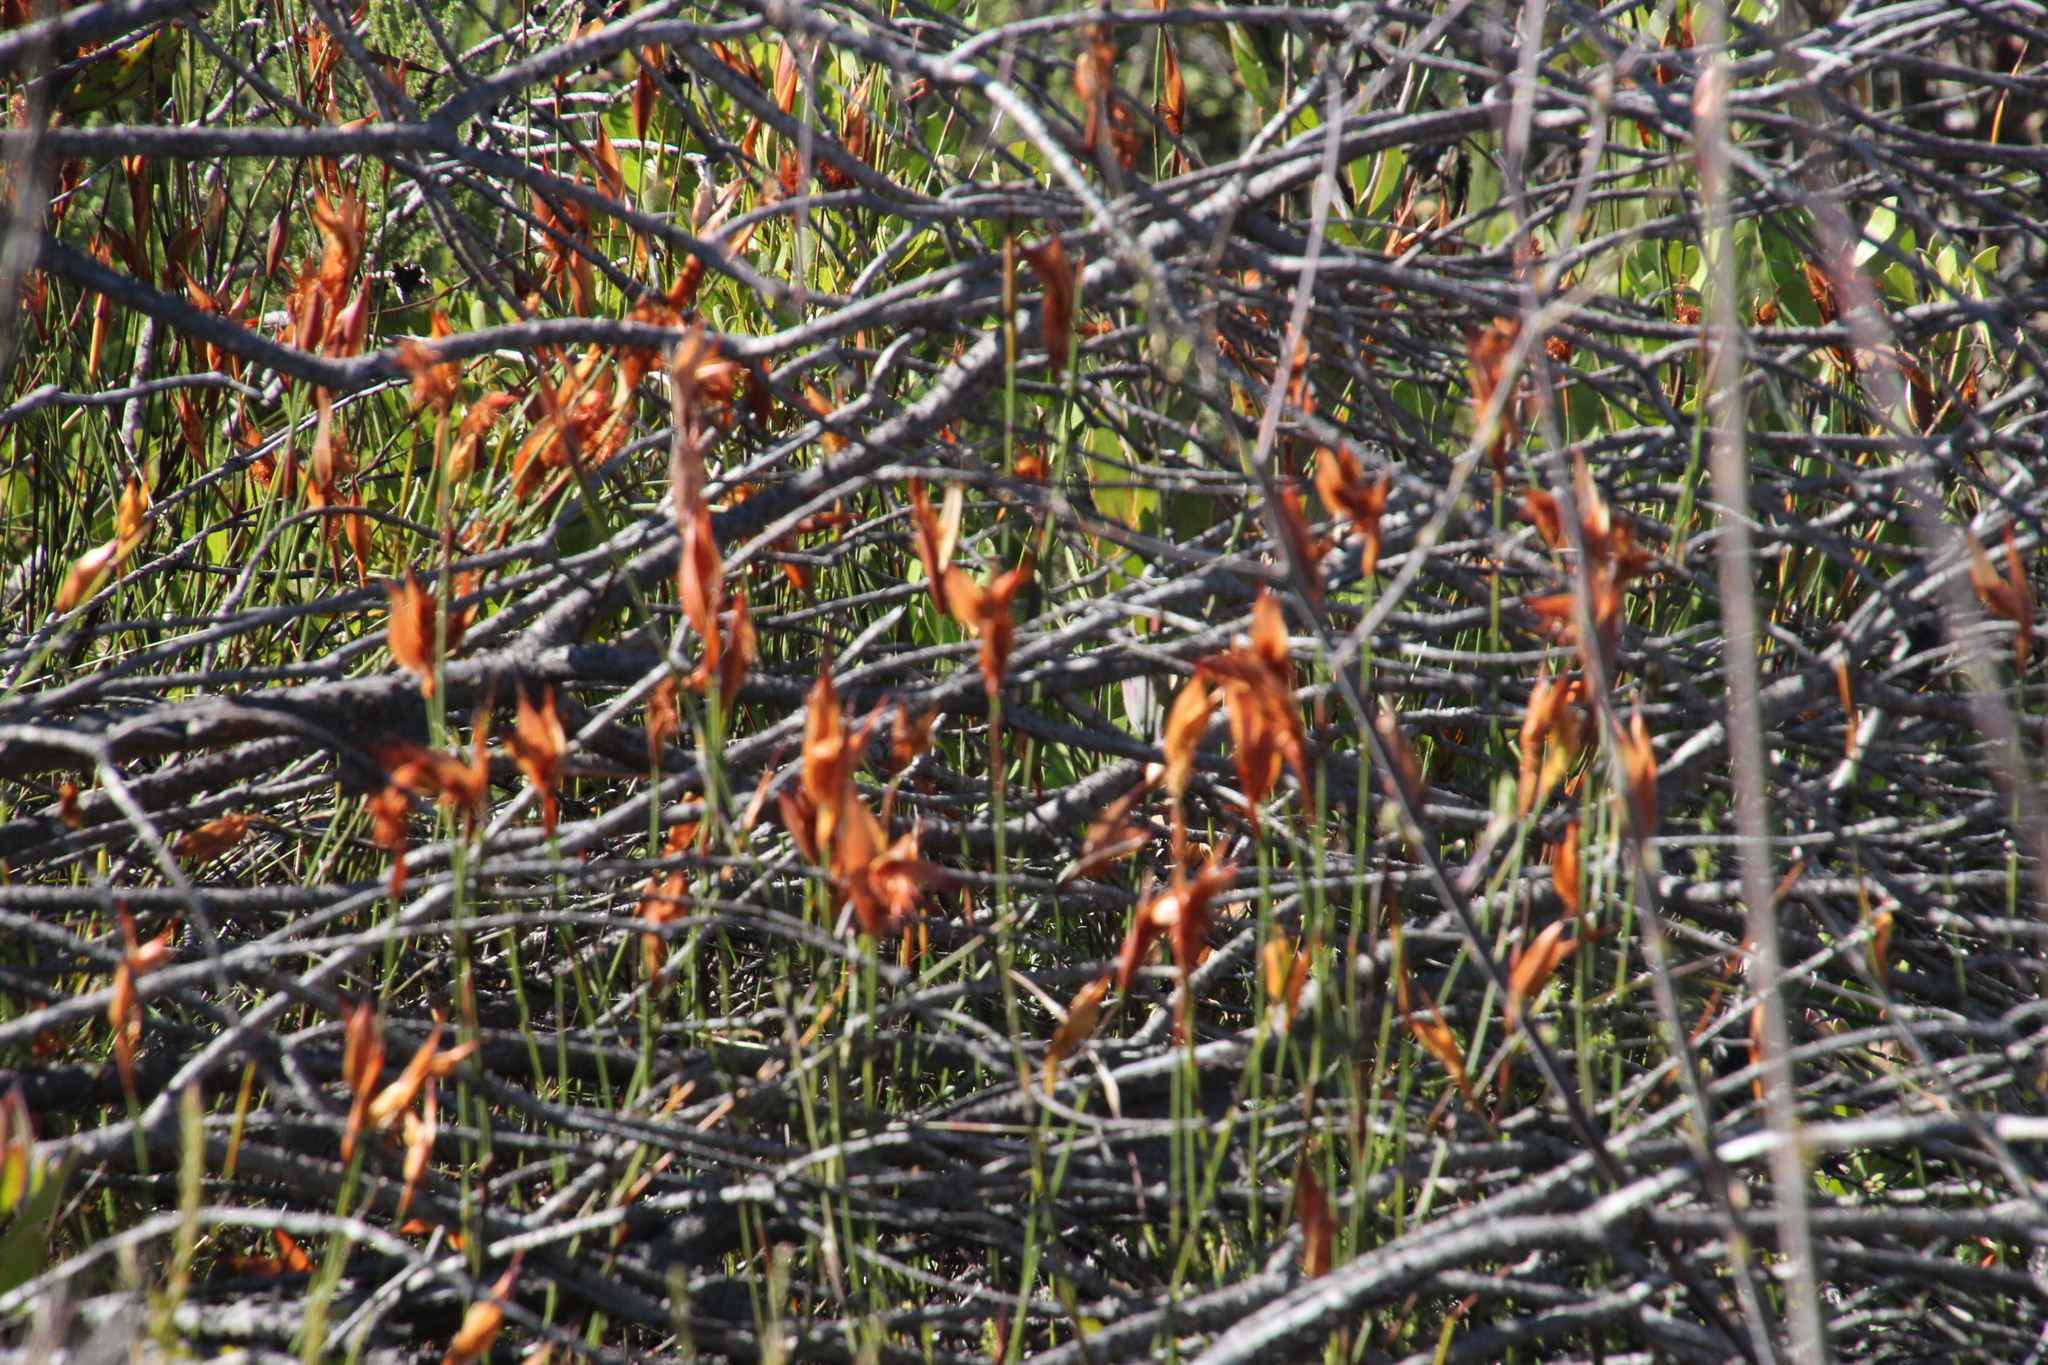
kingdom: Plantae
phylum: Tracheophyta
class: Liliopsida
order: Poales
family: Restionaceae
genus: Willdenowia
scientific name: Willdenowia glomerata
